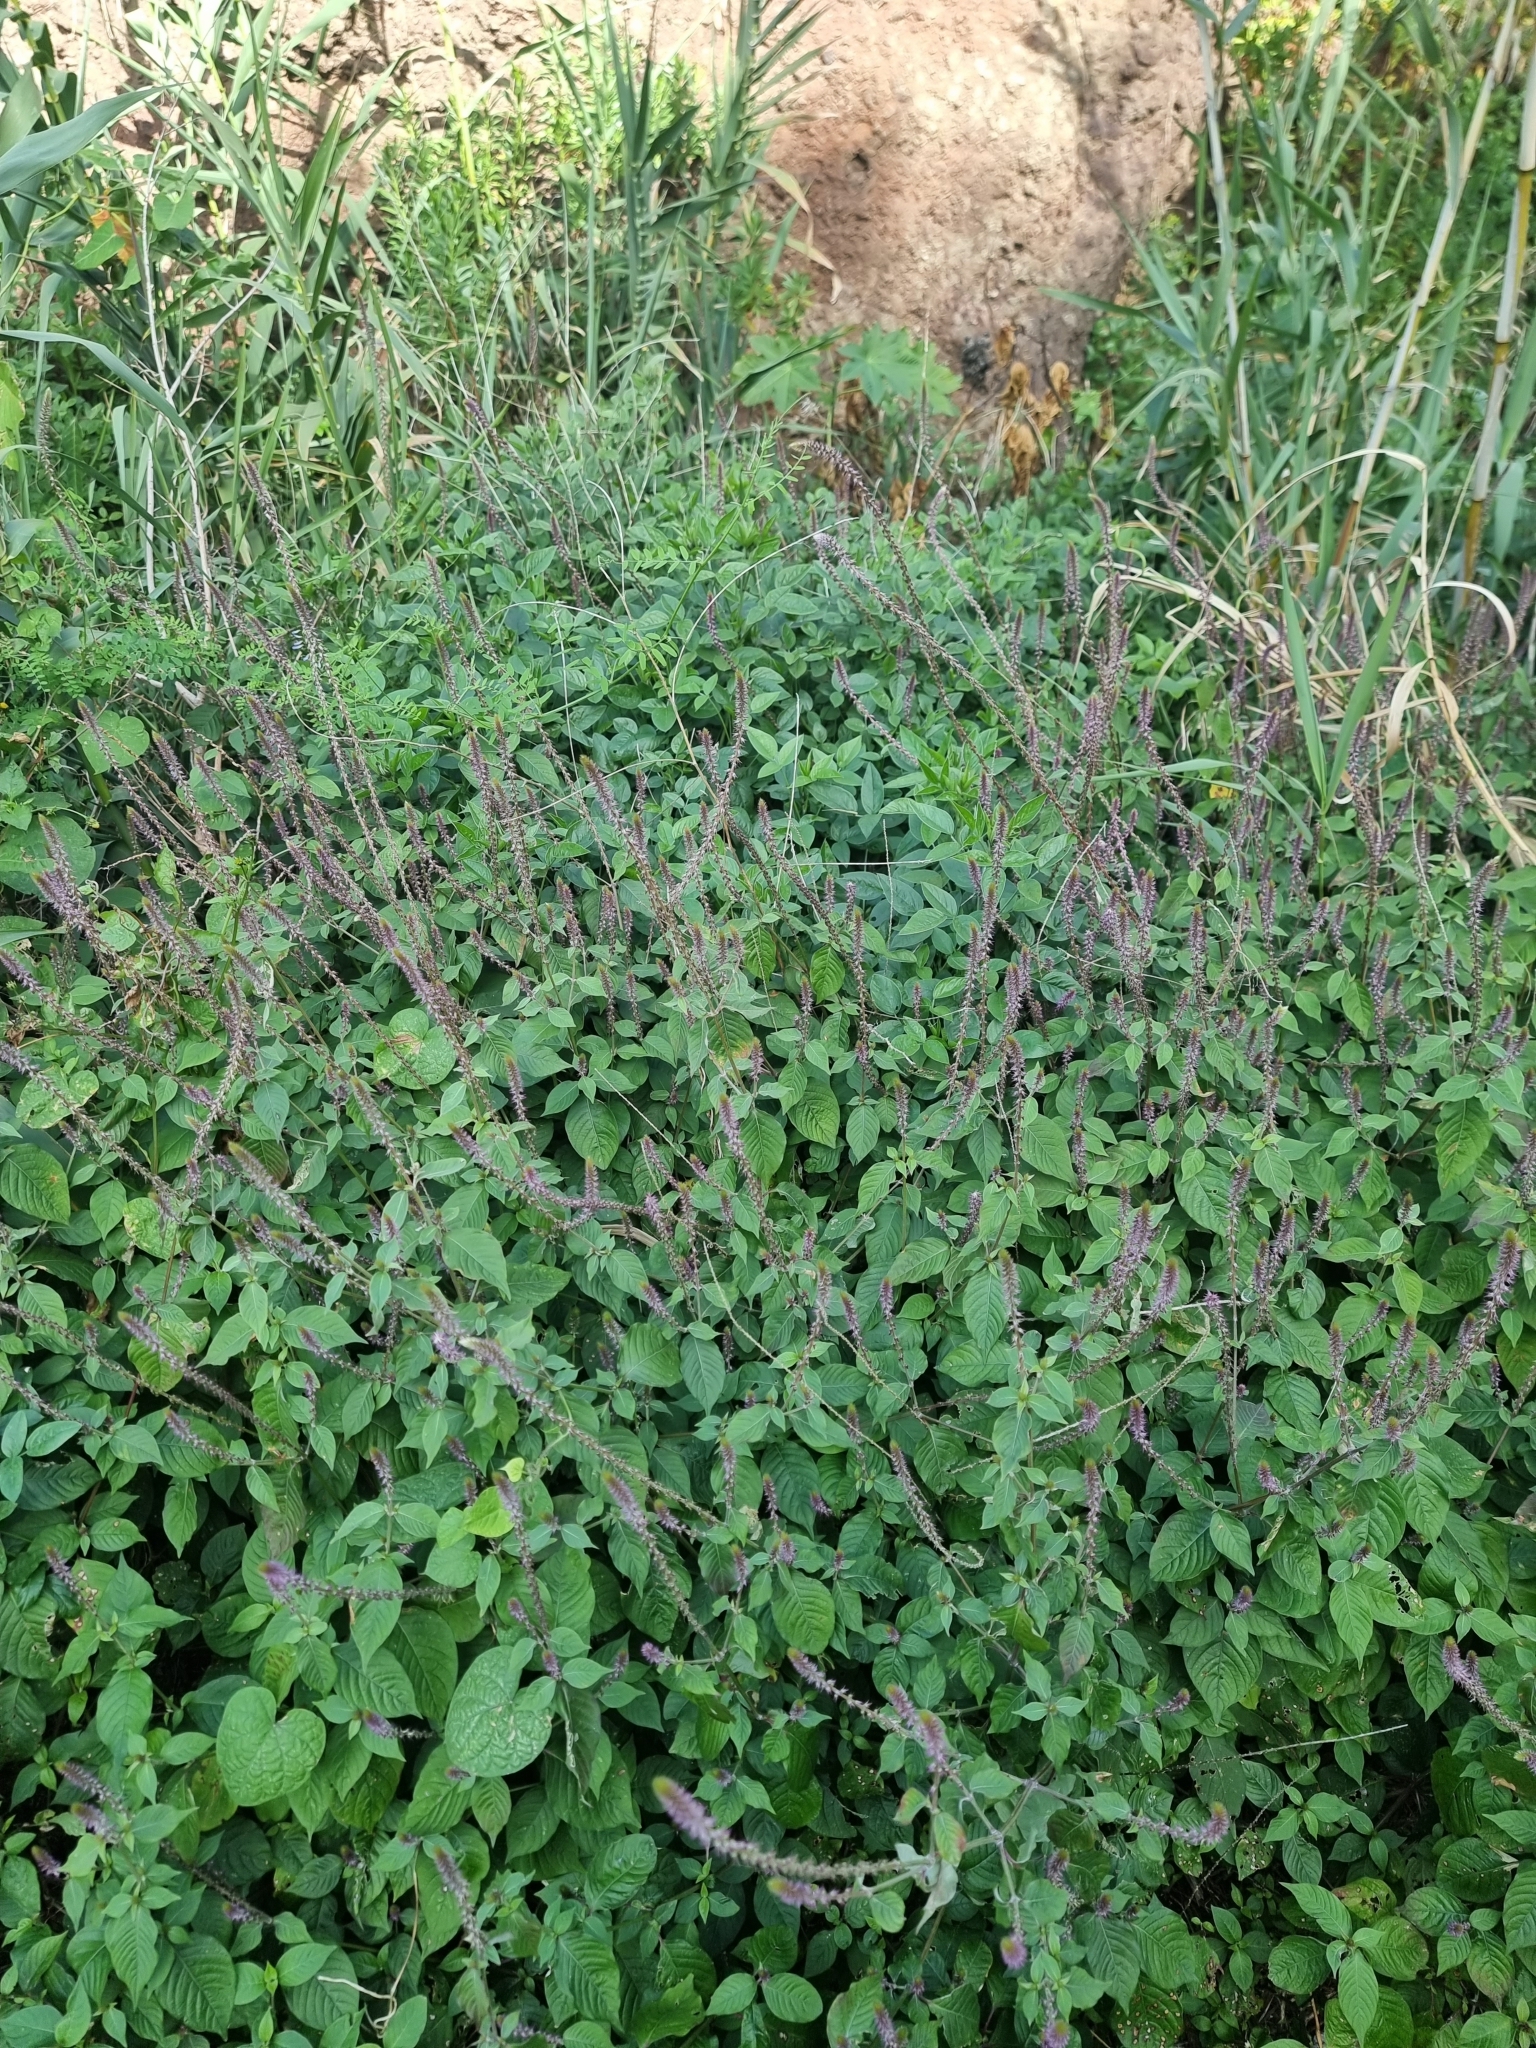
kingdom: Plantae
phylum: Tracheophyta
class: Magnoliopsida
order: Caryophyllales
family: Amaranthaceae
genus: Achyranthes
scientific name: Achyranthes aspera
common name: Devil's horsewhip
